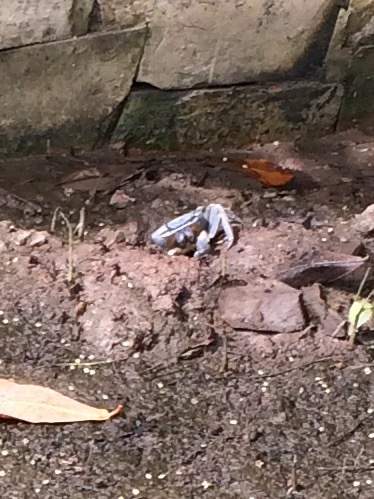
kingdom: Animalia
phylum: Arthropoda
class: Malacostraca
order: Decapoda
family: Gecarcinidae
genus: Cardisoma
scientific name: Cardisoma guanhumi
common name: Great land crab
